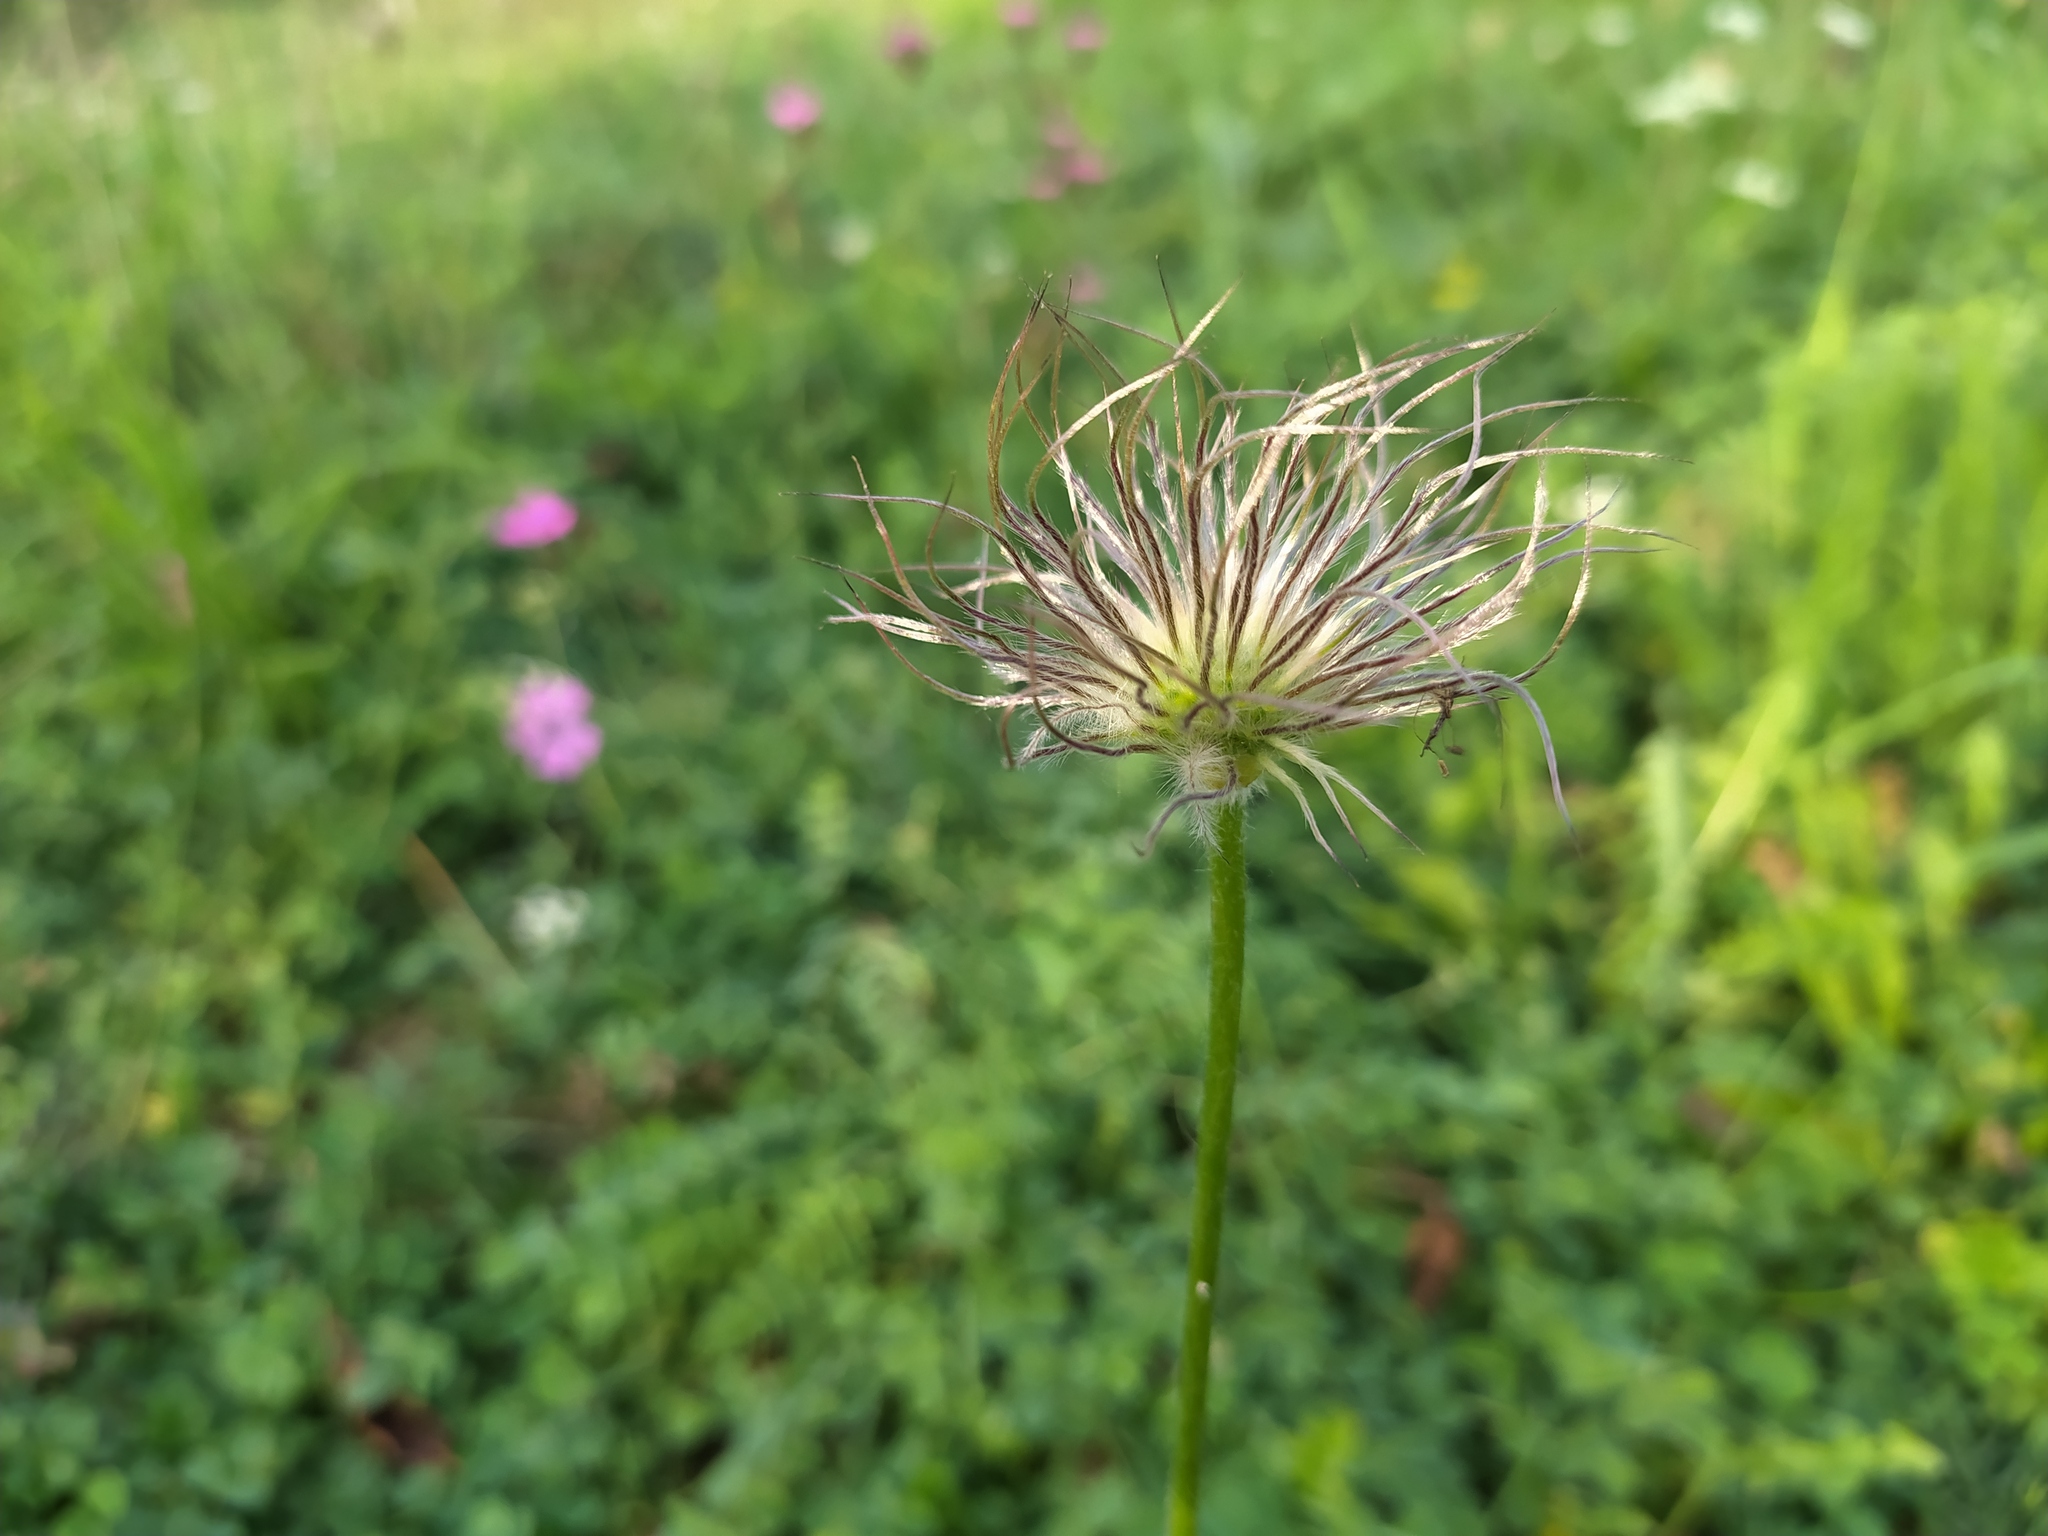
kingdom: Plantae
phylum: Tracheophyta
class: Magnoliopsida
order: Ranunculales
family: Ranunculaceae
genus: Pulsatilla
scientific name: Pulsatilla vulgaris
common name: Pasqueflower
